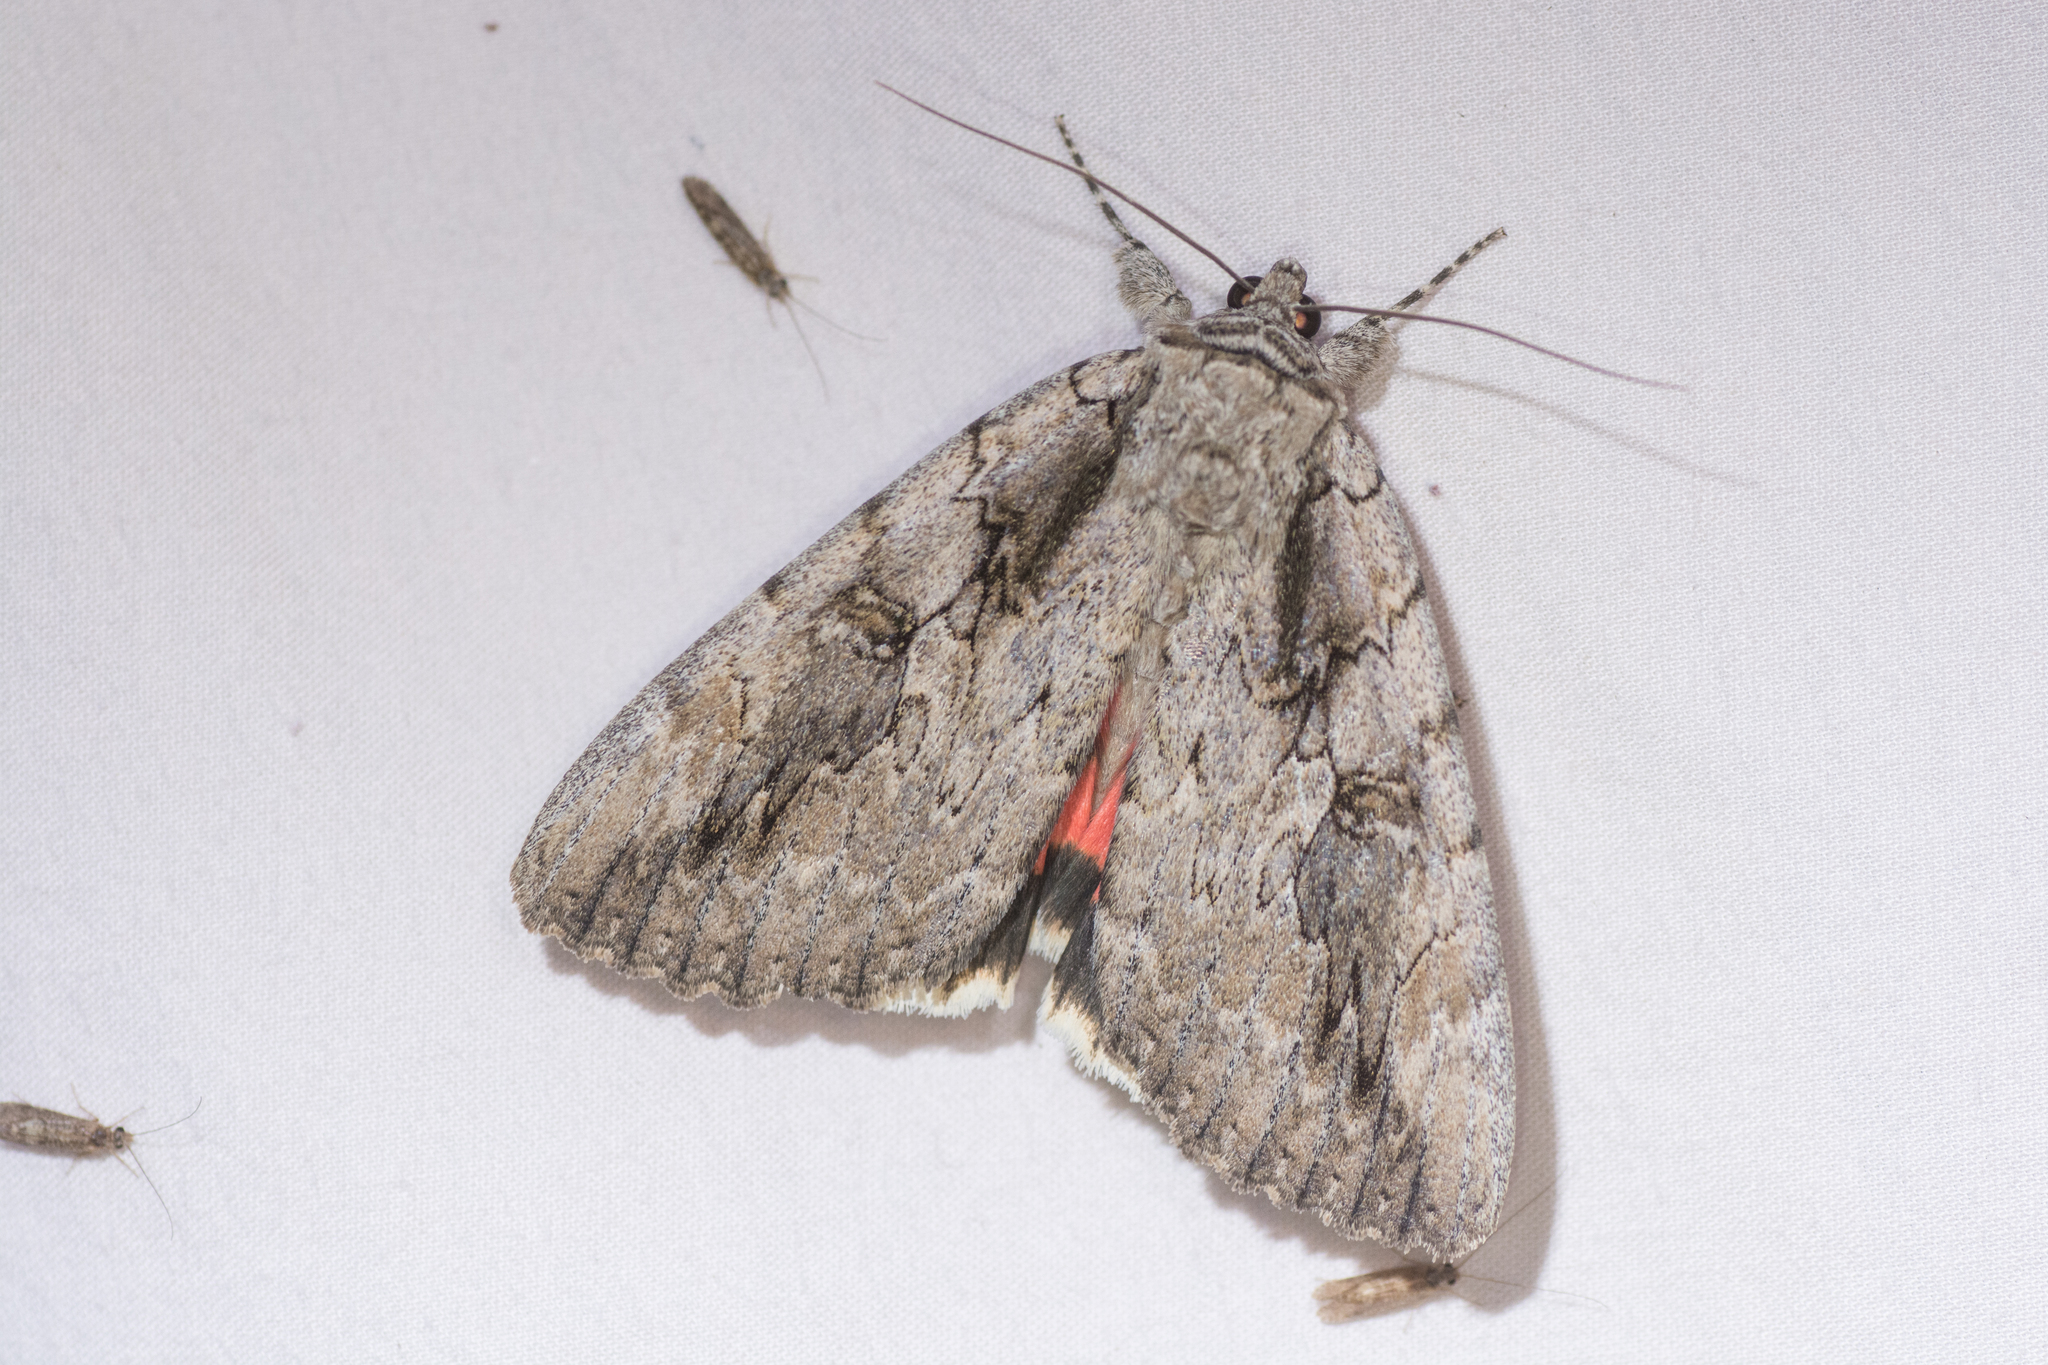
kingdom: Animalia
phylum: Arthropoda
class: Insecta
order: Lepidoptera
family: Erebidae
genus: Catocala
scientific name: Catocala amatrix
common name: Sweetheart underwing
